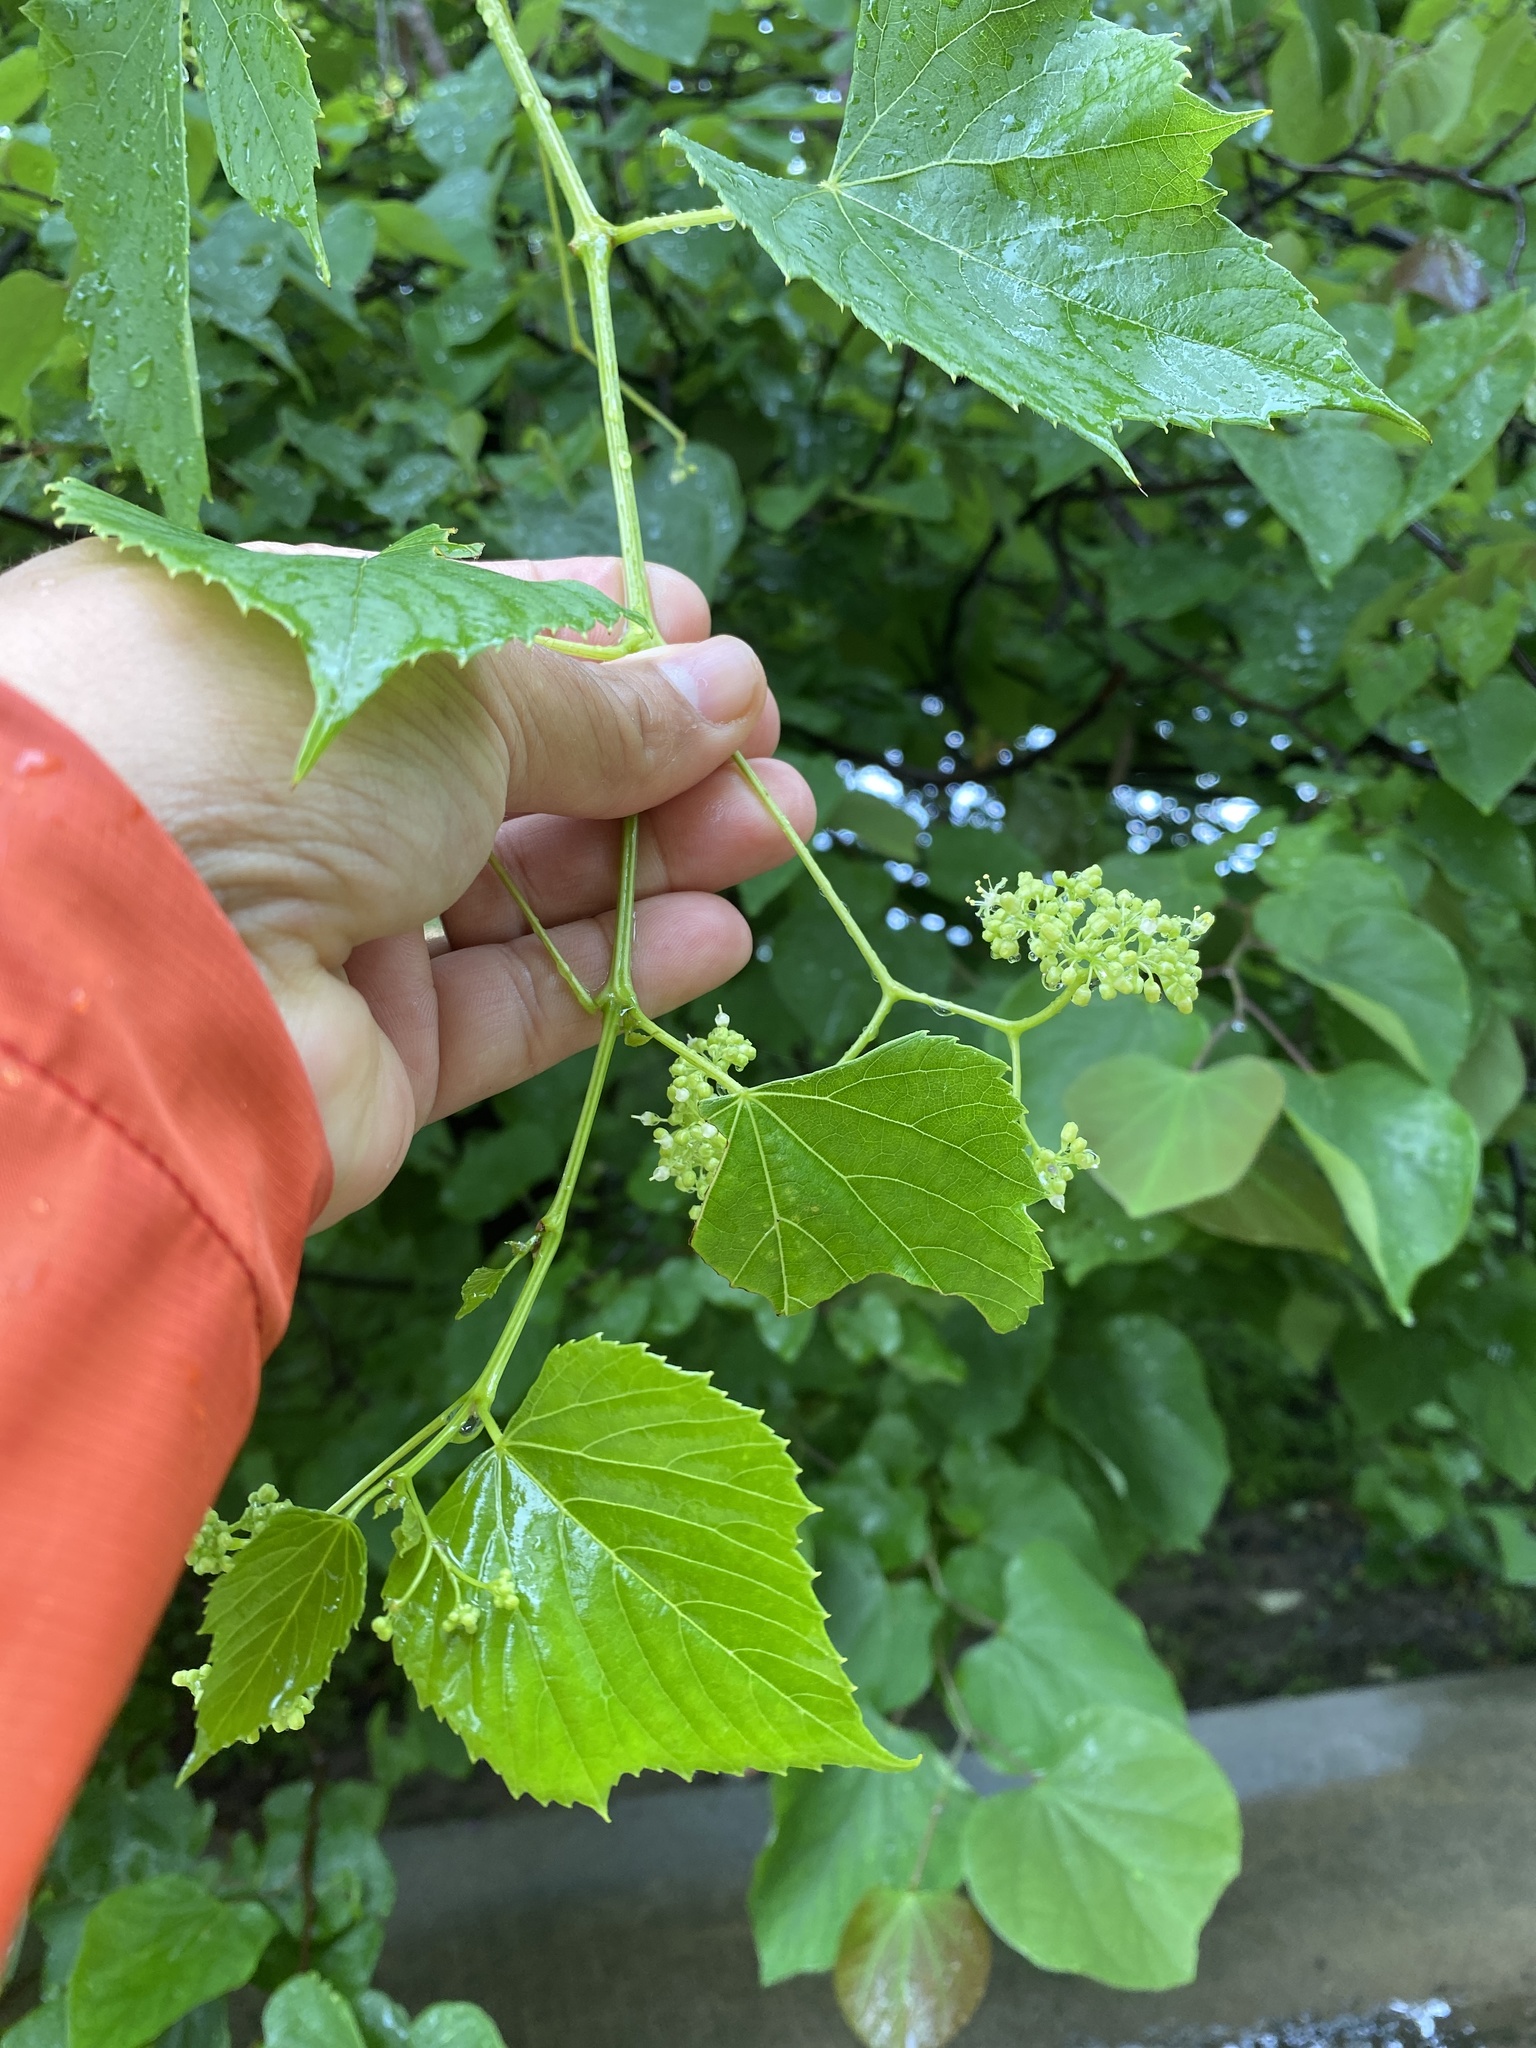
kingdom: Plantae
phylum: Tracheophyta
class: Magnoliopsida
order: Vitales
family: Vitaceae
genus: Ampelopsis
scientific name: Ampelopsis cordata
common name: Heart-leaf ampelopsis
